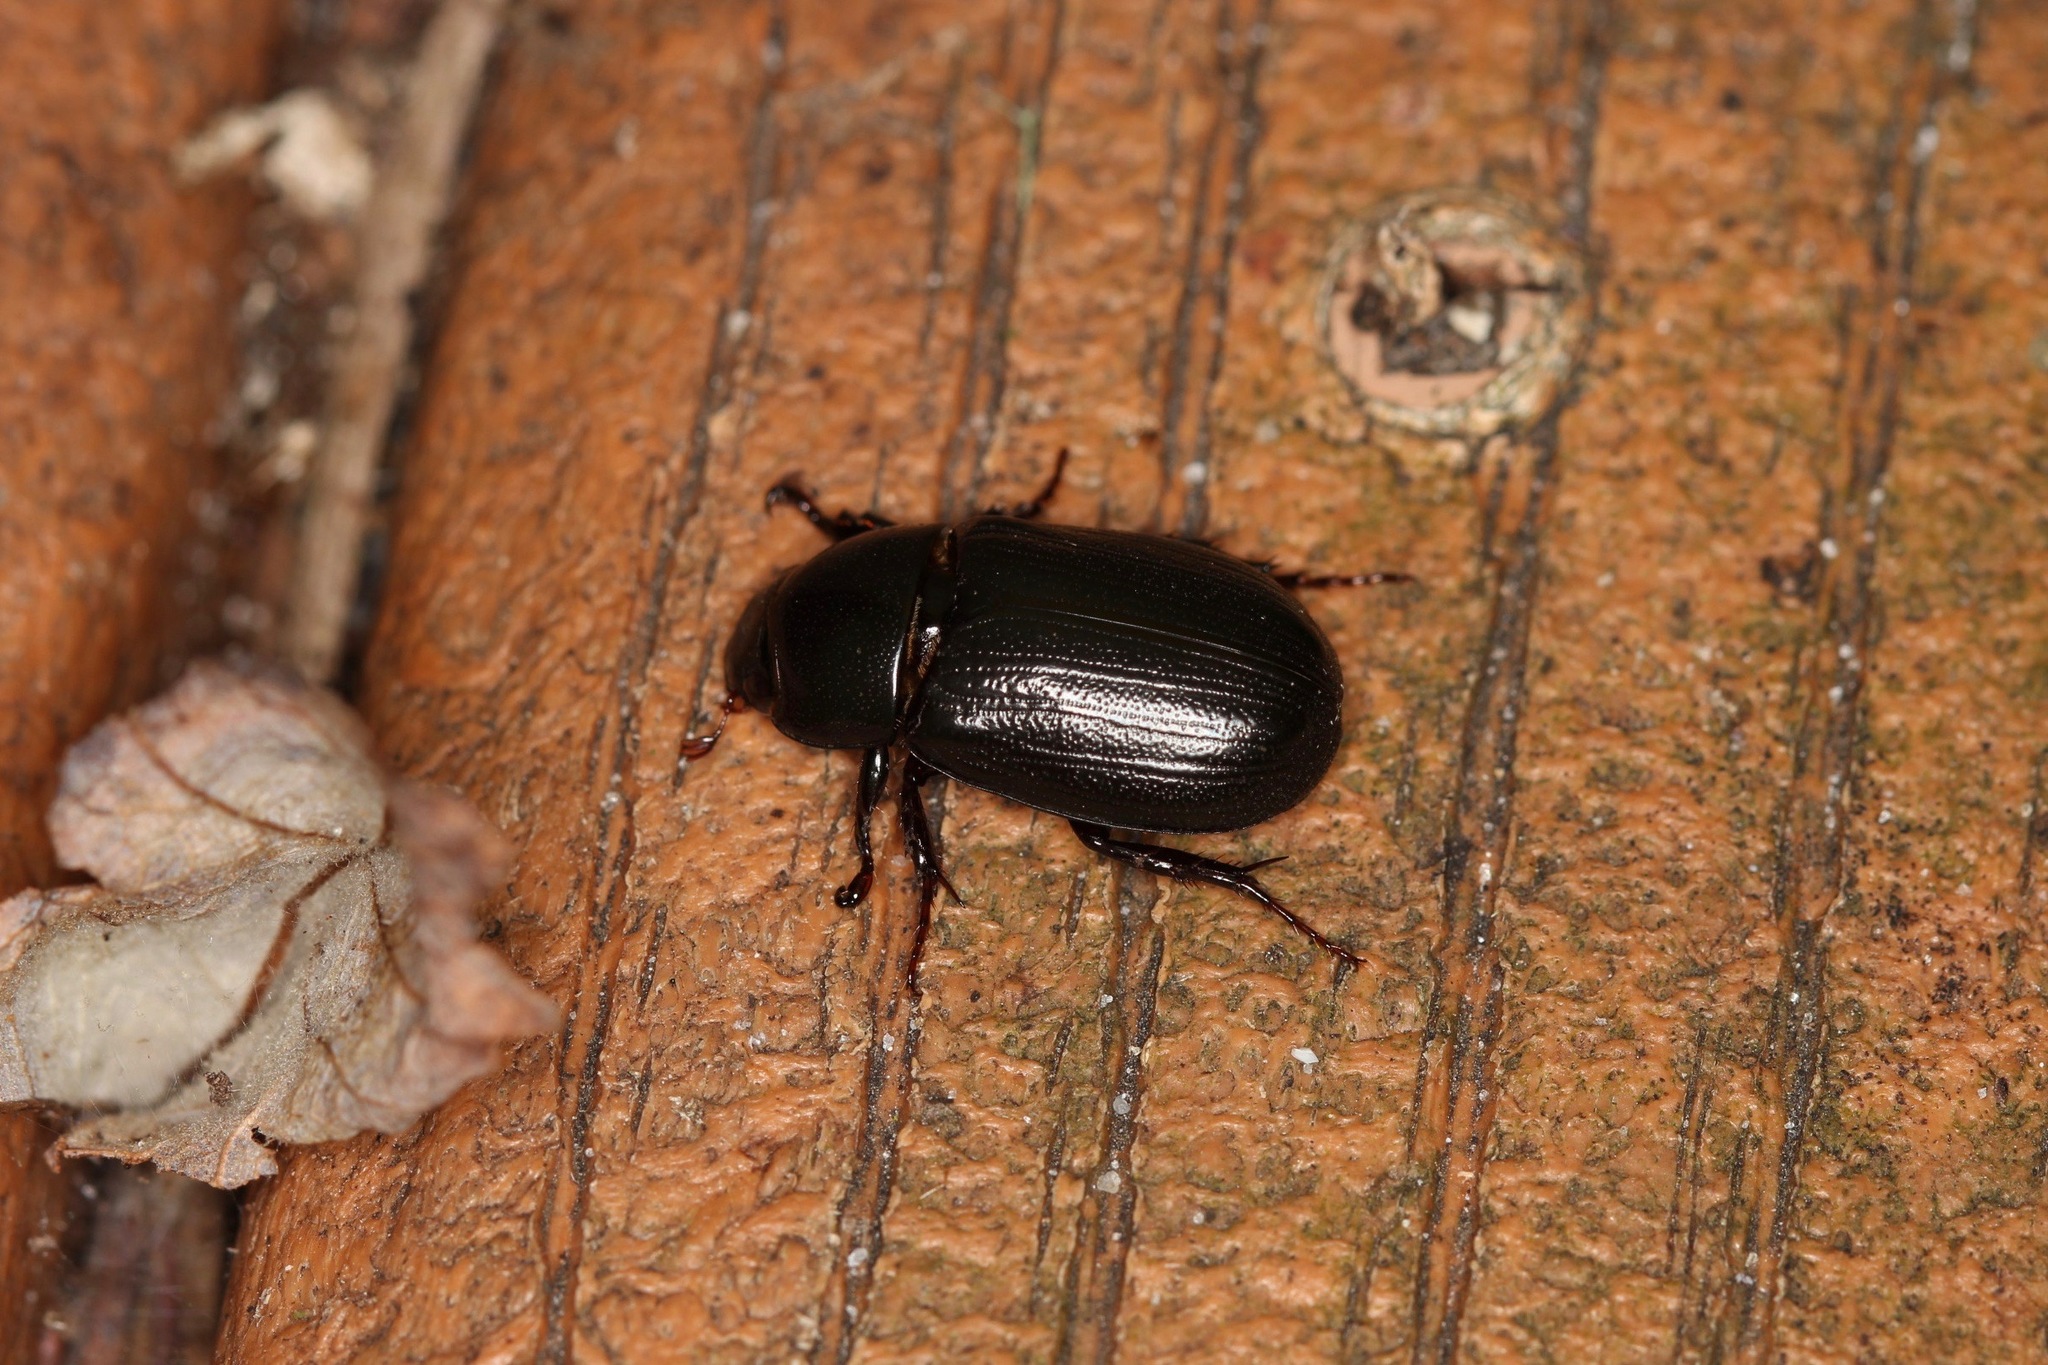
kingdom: Animalia
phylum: Arthropoda
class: Insecta
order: Coleoptera
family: Scarabaeidae
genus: Dyscinetus
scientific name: Dyscinetus morator
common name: Rice beetle
